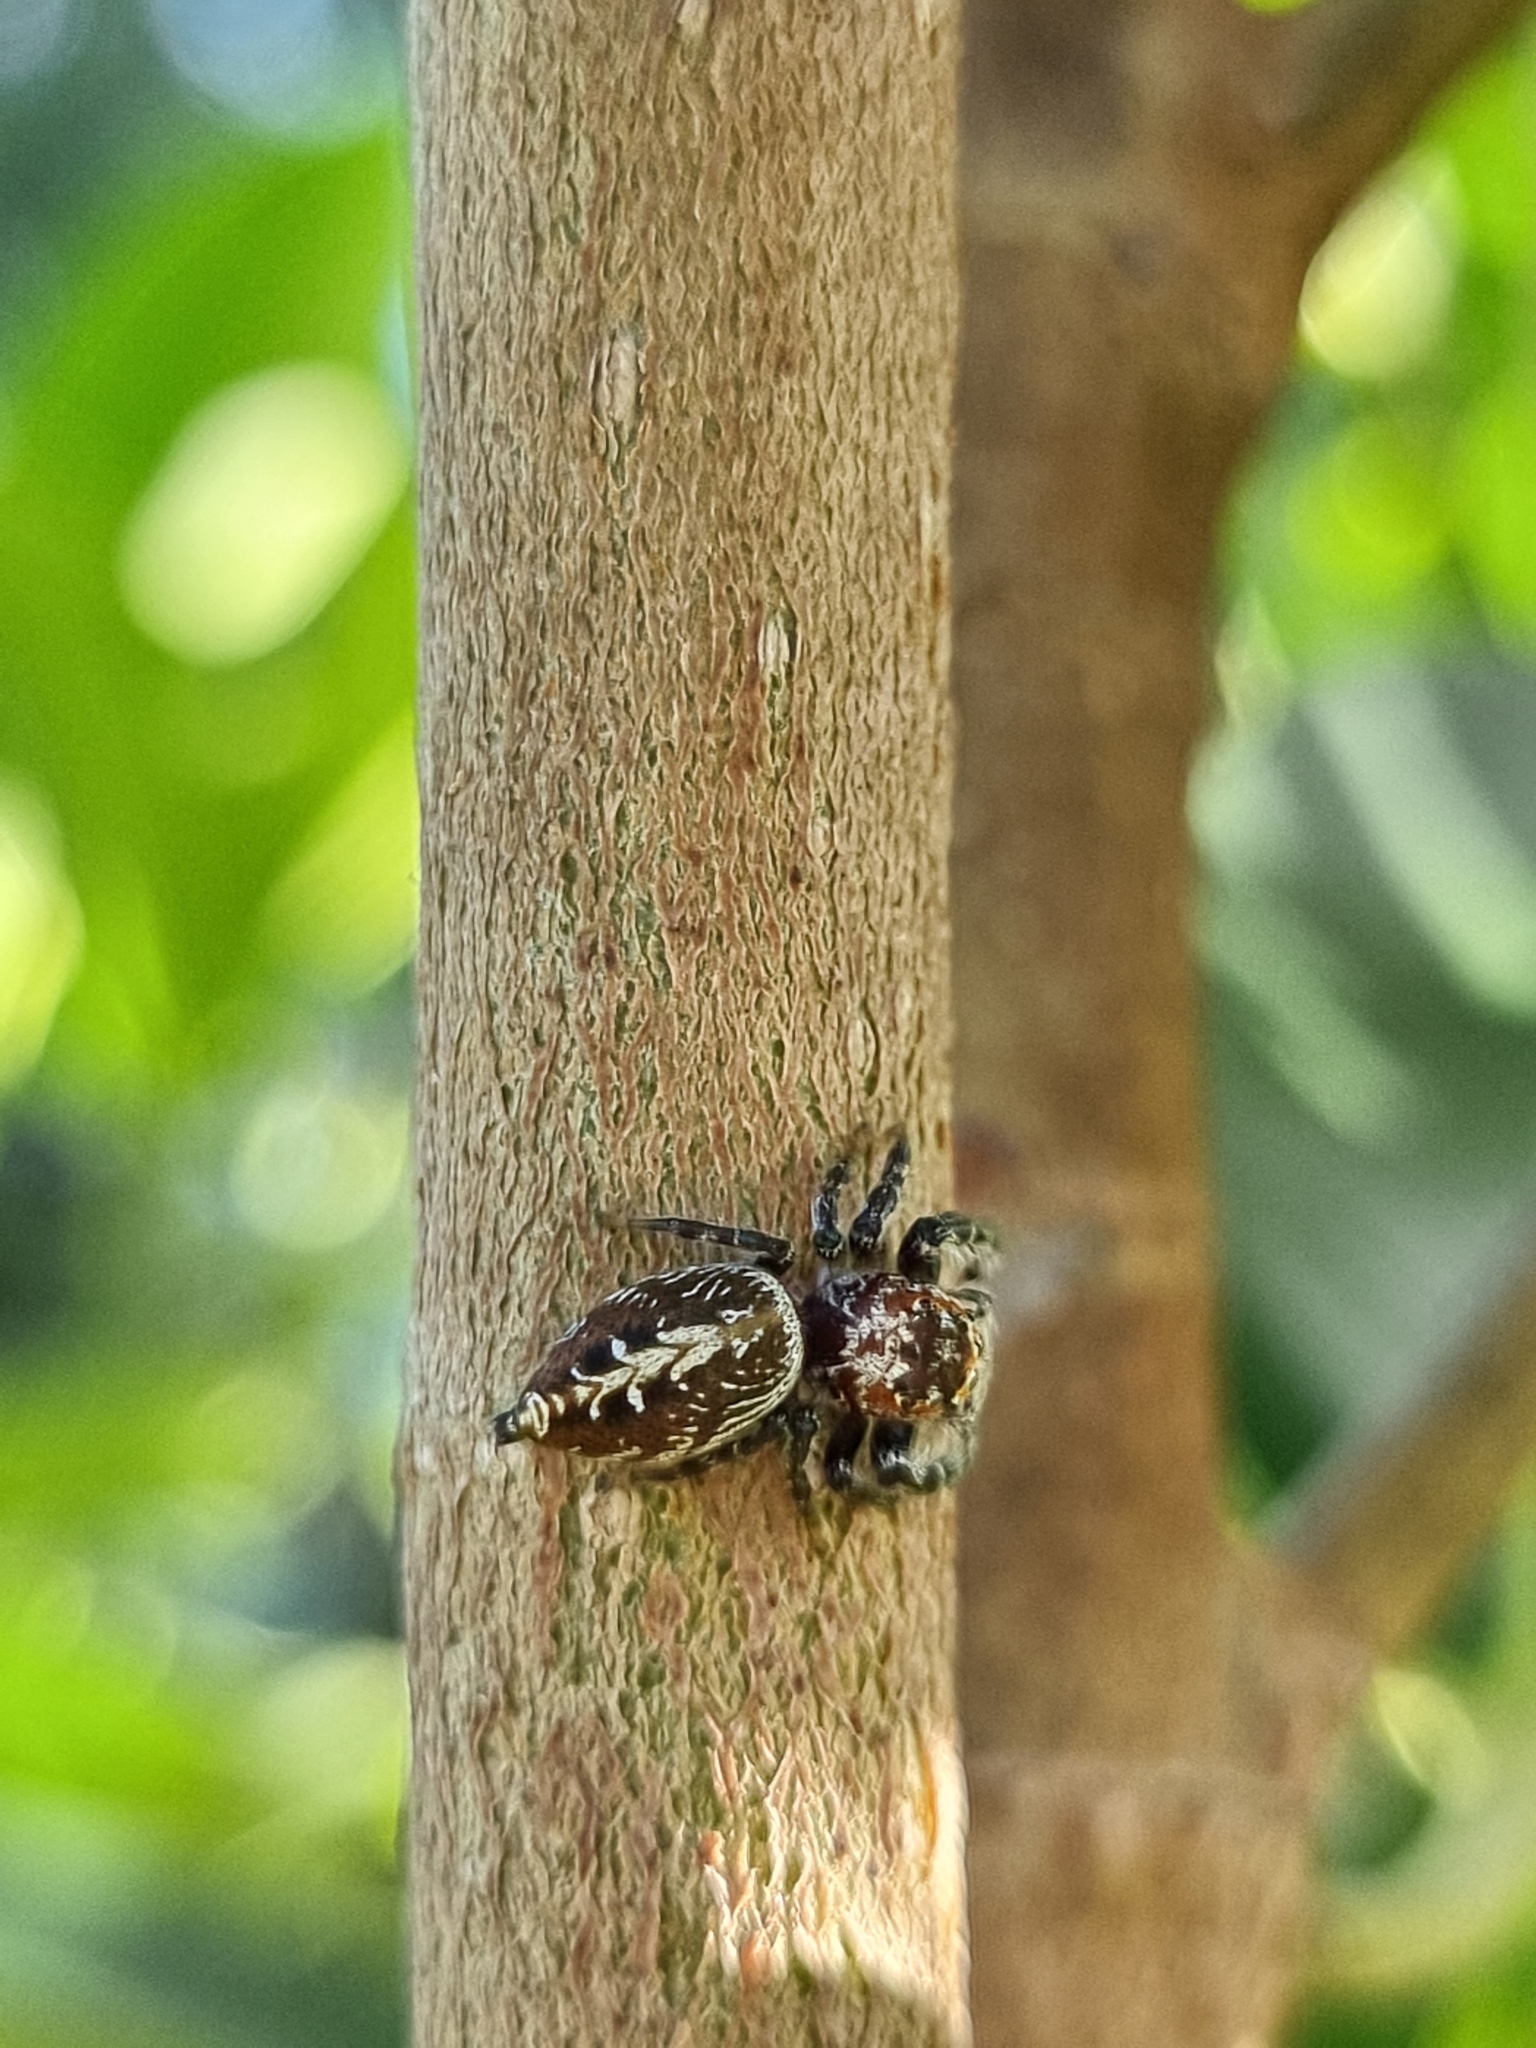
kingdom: Animalia
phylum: Arthropoda
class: Arachnida
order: Araneae
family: Salticidae
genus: Opisthoncus
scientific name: Opisthoncus quadratarius
